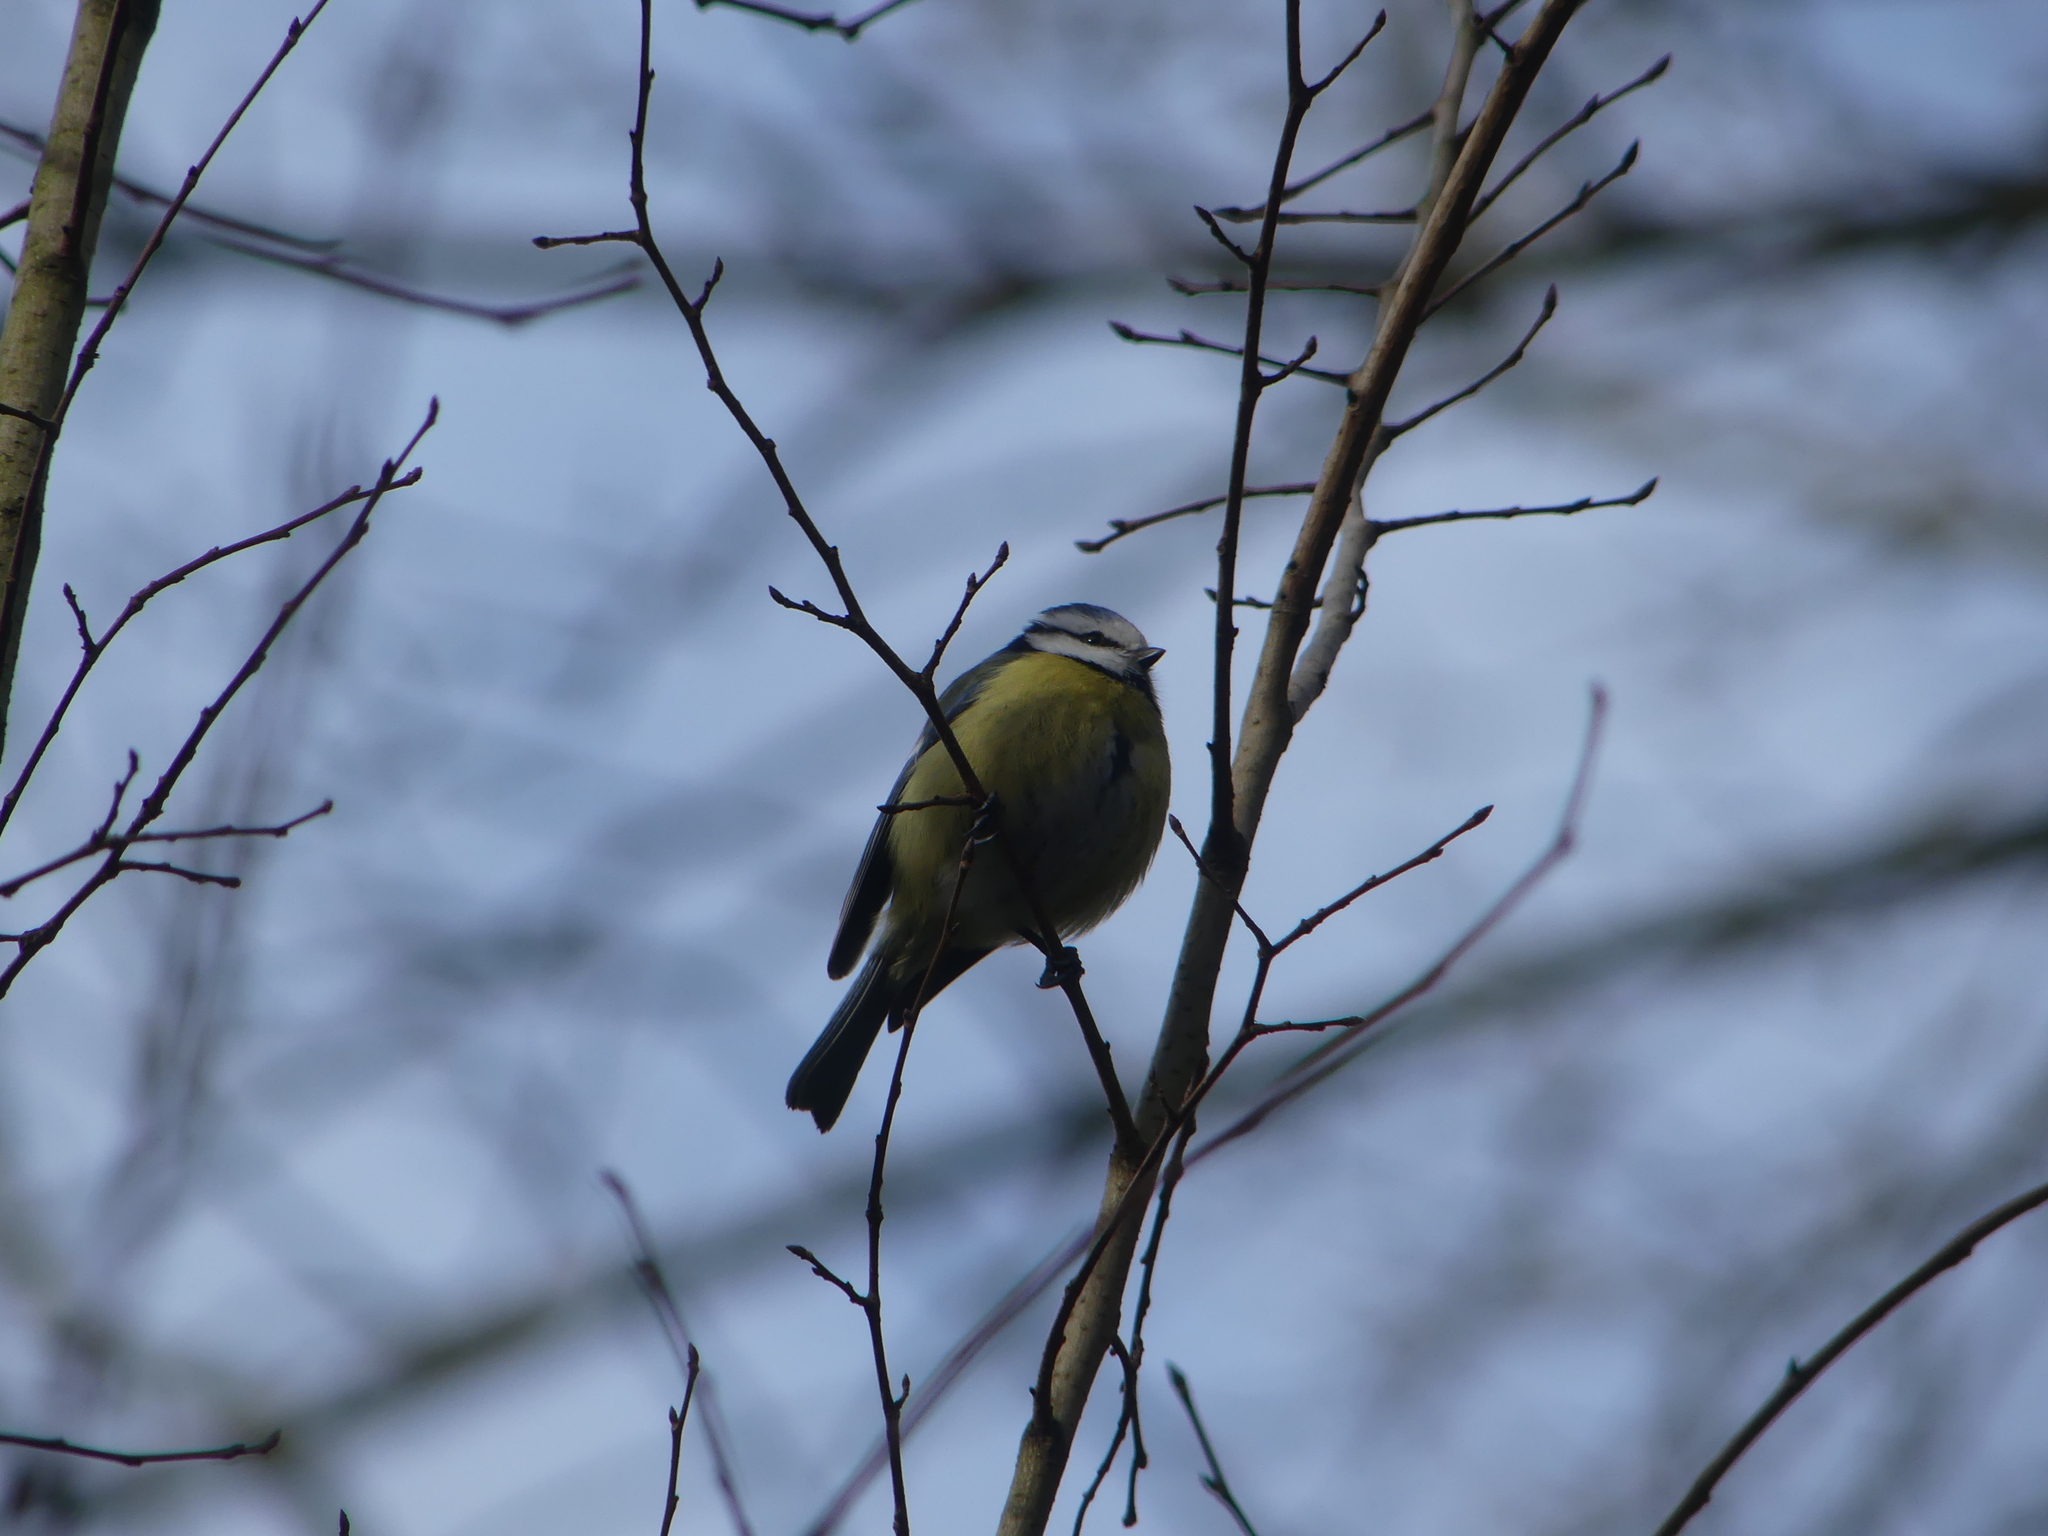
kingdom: Animalia
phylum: Chordata
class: Aves
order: Passeriformes
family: Paridae
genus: Cyanistes
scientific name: Cyanistes caeruleus
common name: Eurasian blue tit
